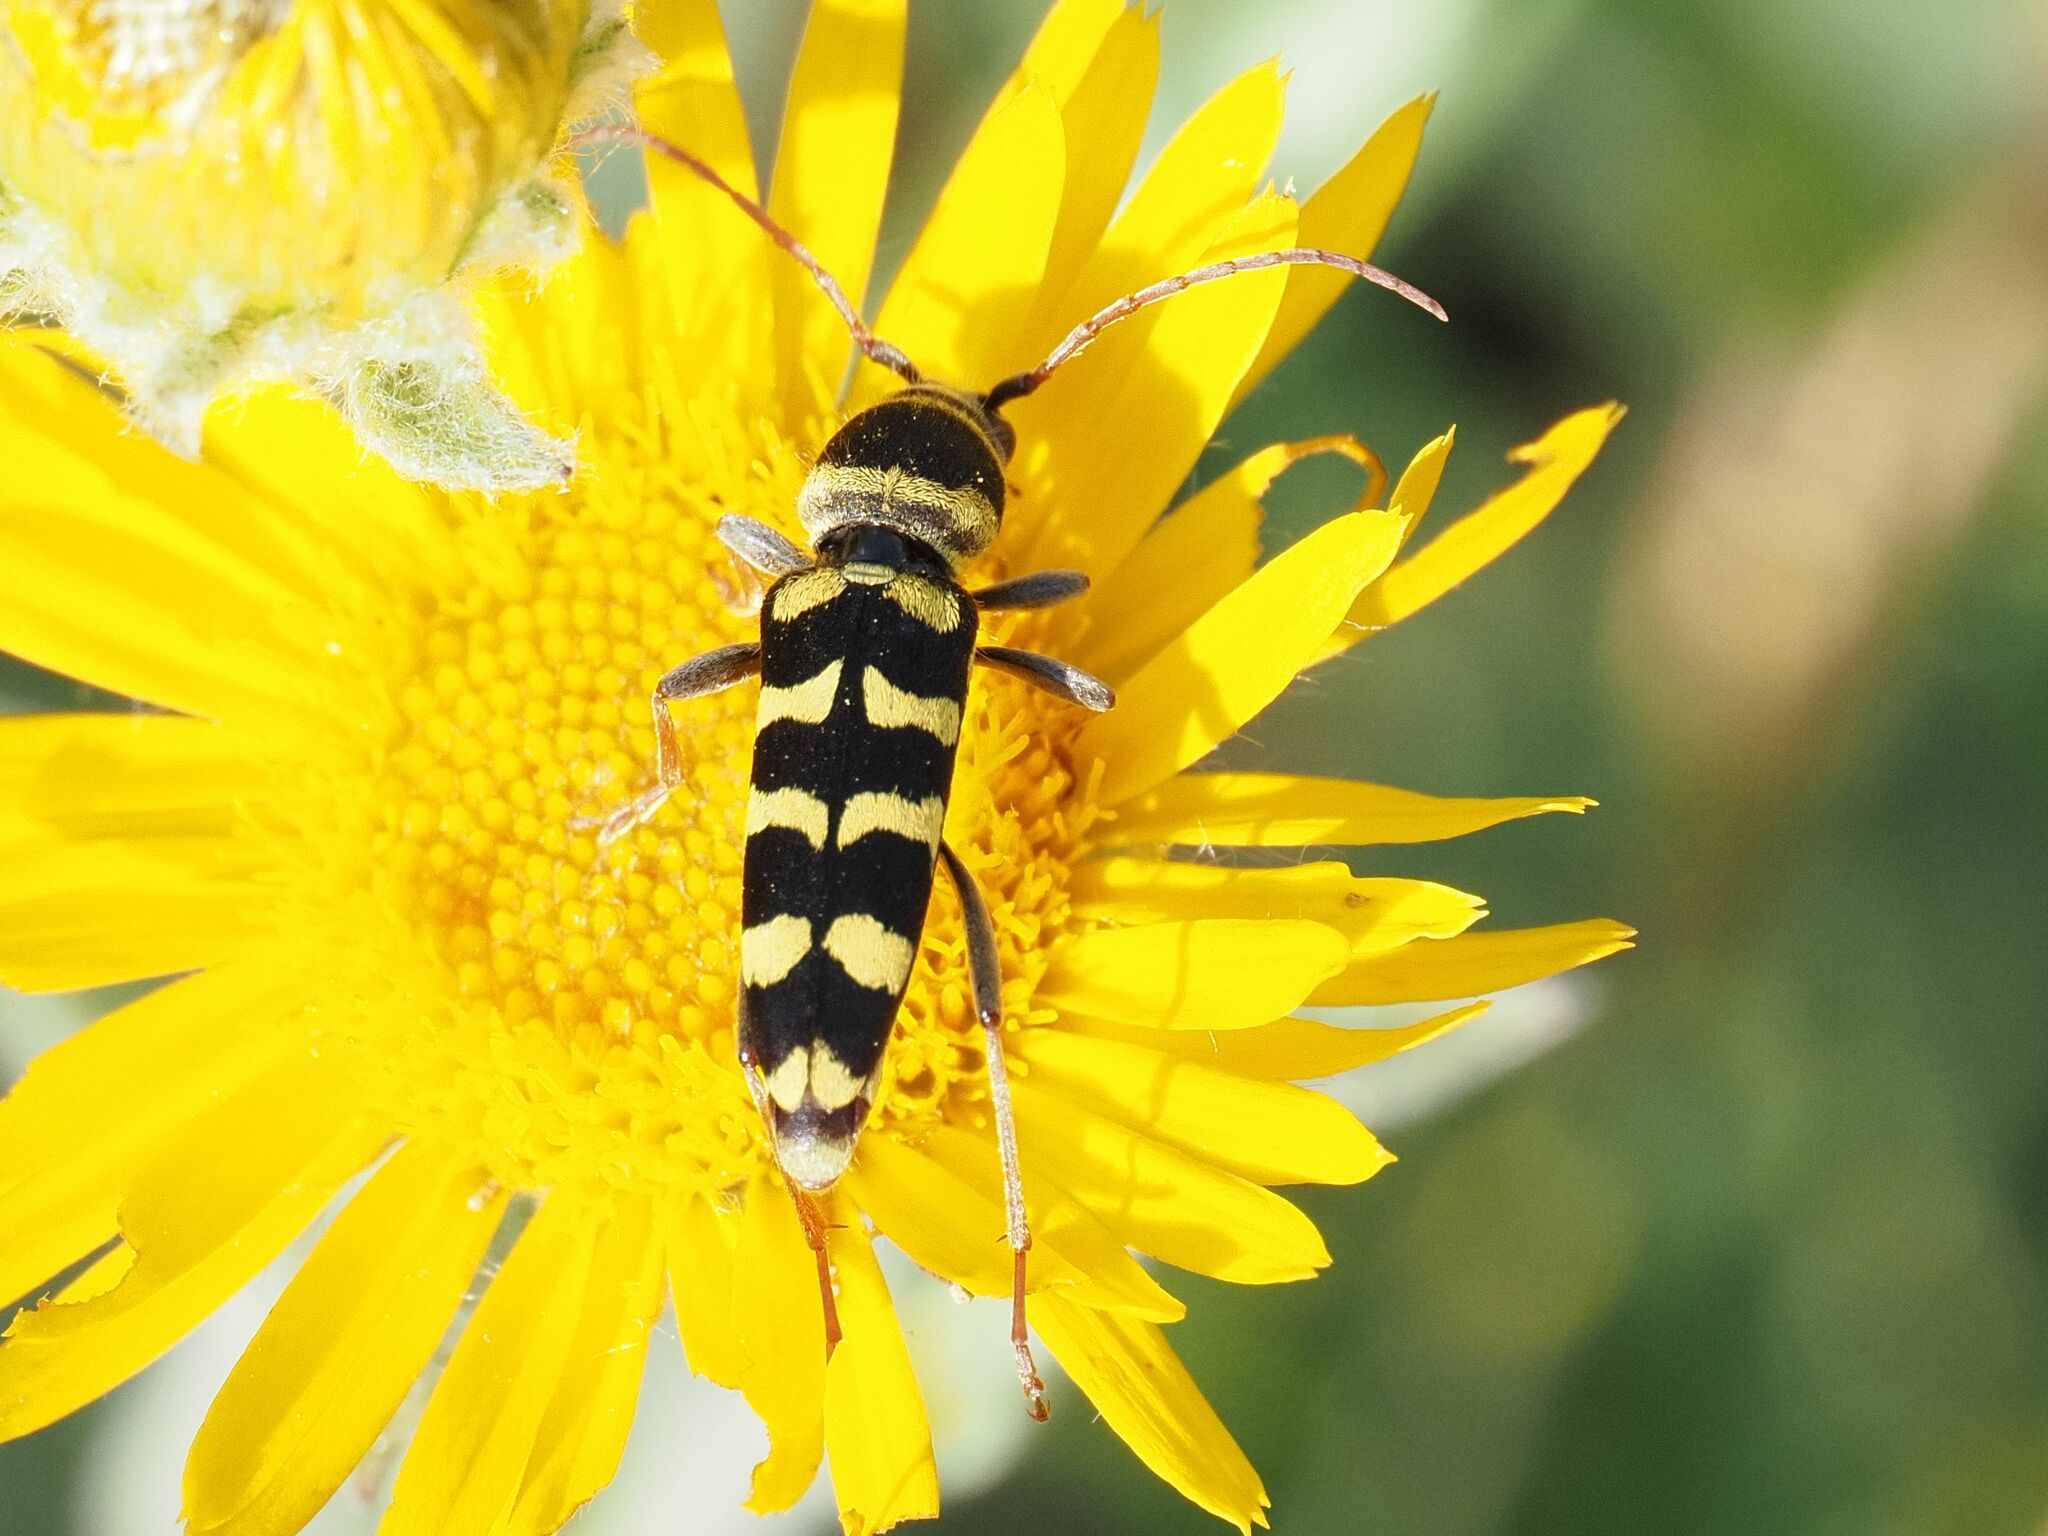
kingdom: Animalia
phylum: Arthropoda
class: Insecta
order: Coleoptera
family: Cerambycidae
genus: Plagionotus
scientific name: Plagionotus floralis
